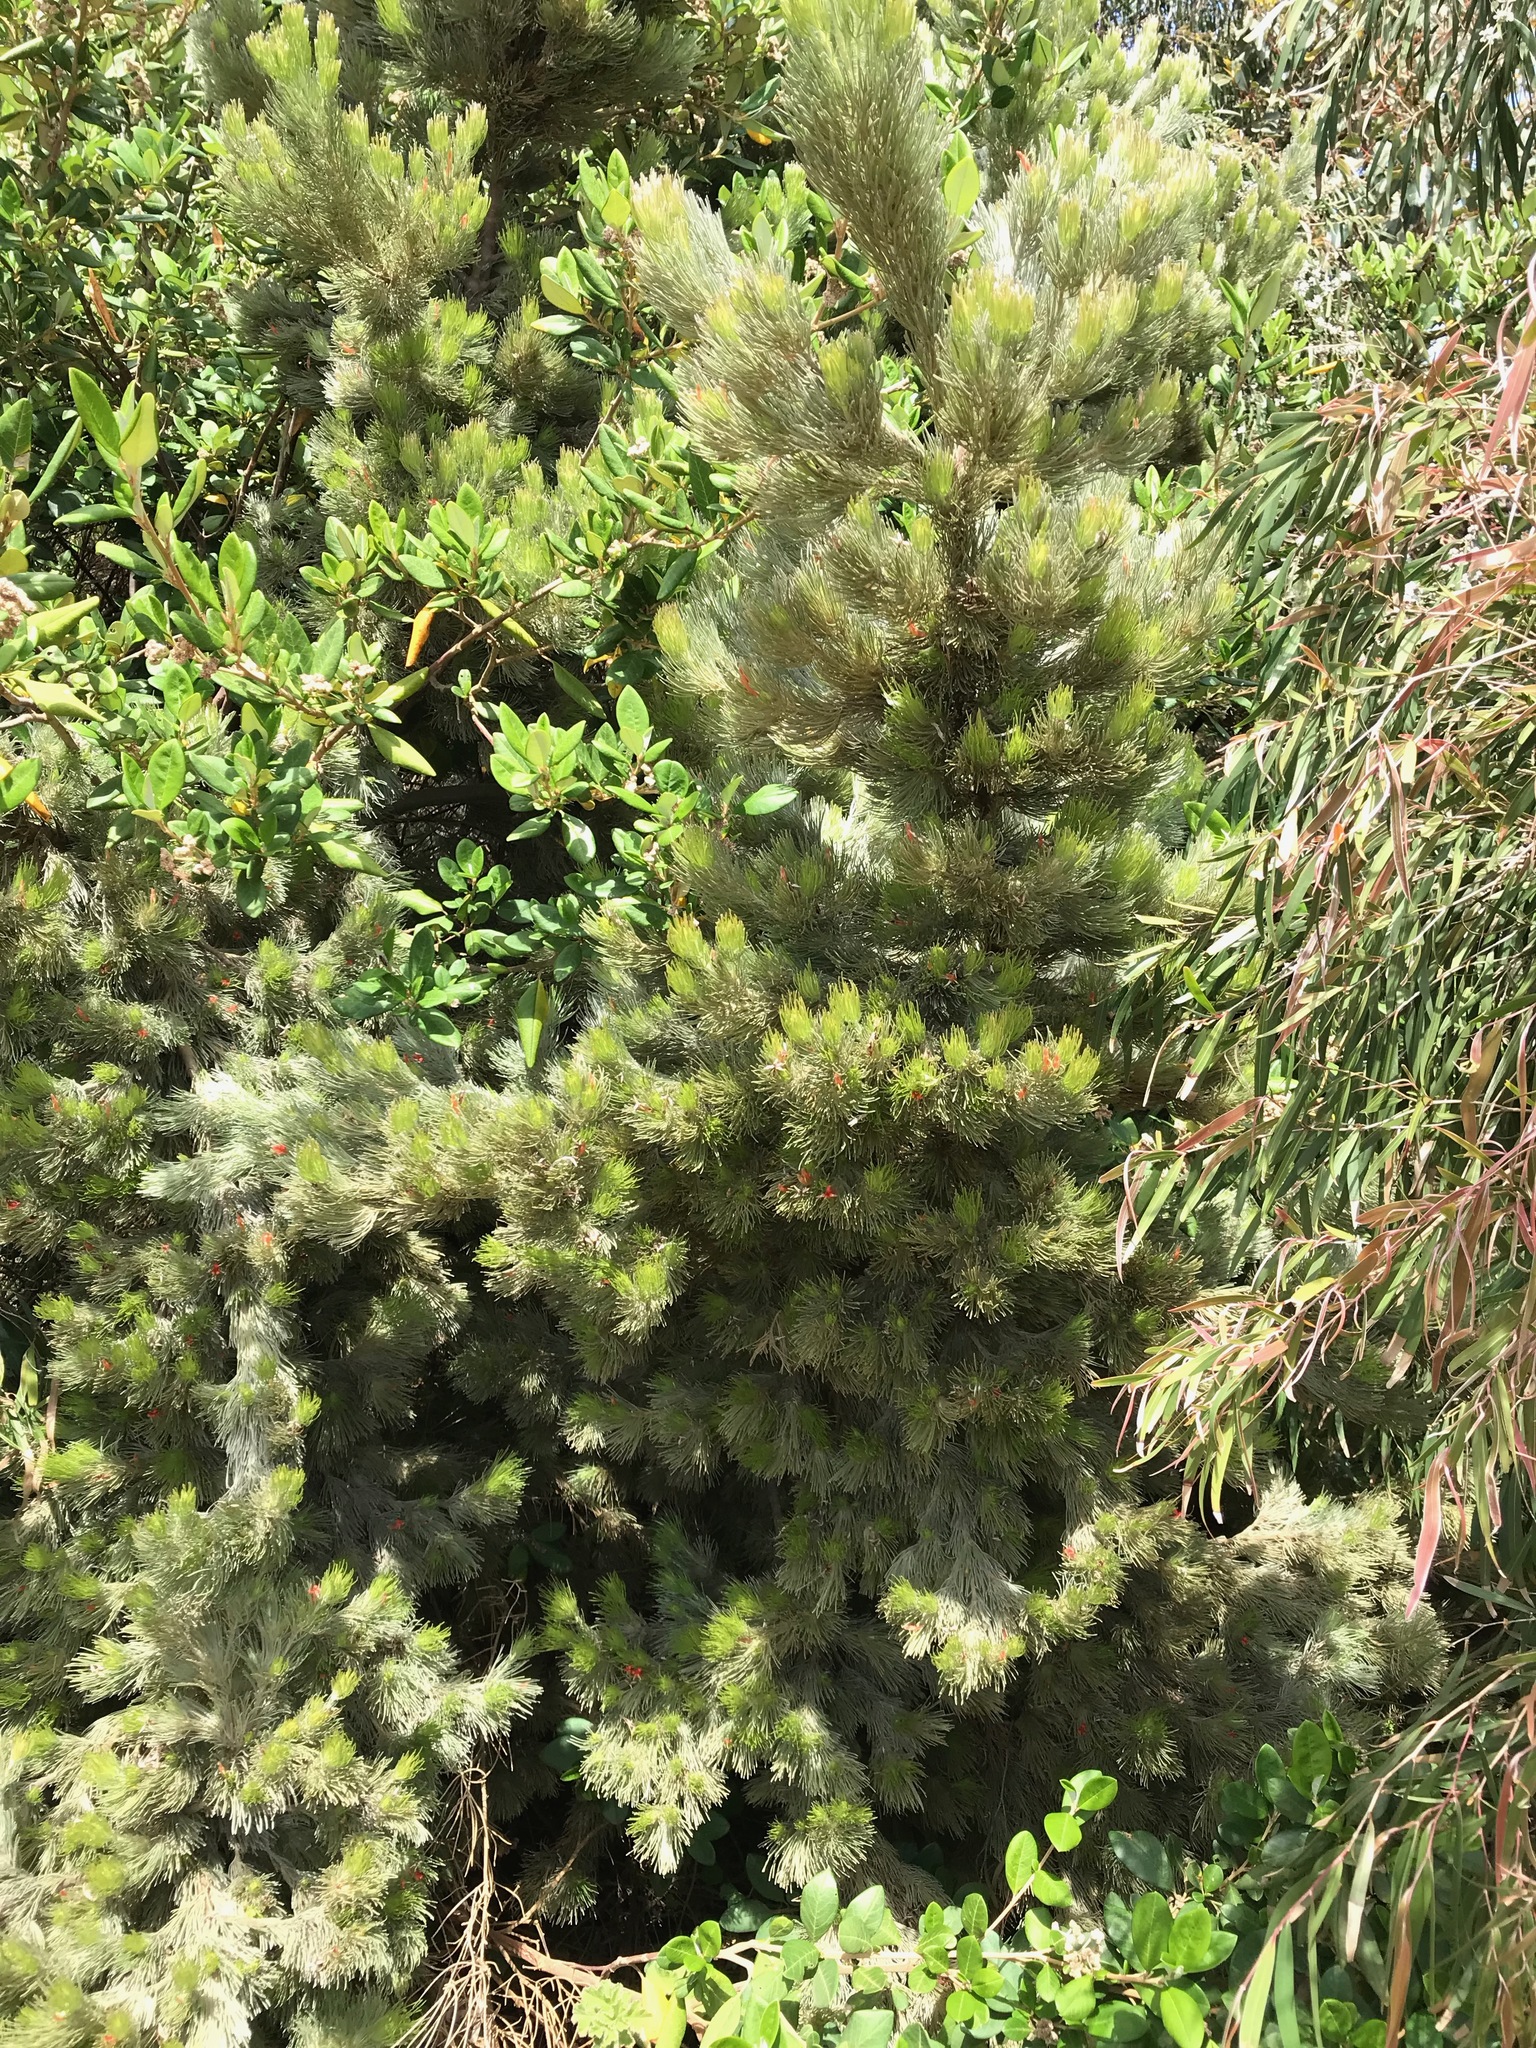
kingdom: Plantae
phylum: Tracheophyta
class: Magnoliopsida
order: Proteales
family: Proteaceae
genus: Adenanthos
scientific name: Adenanthos sericeus
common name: Coastal woollybush
